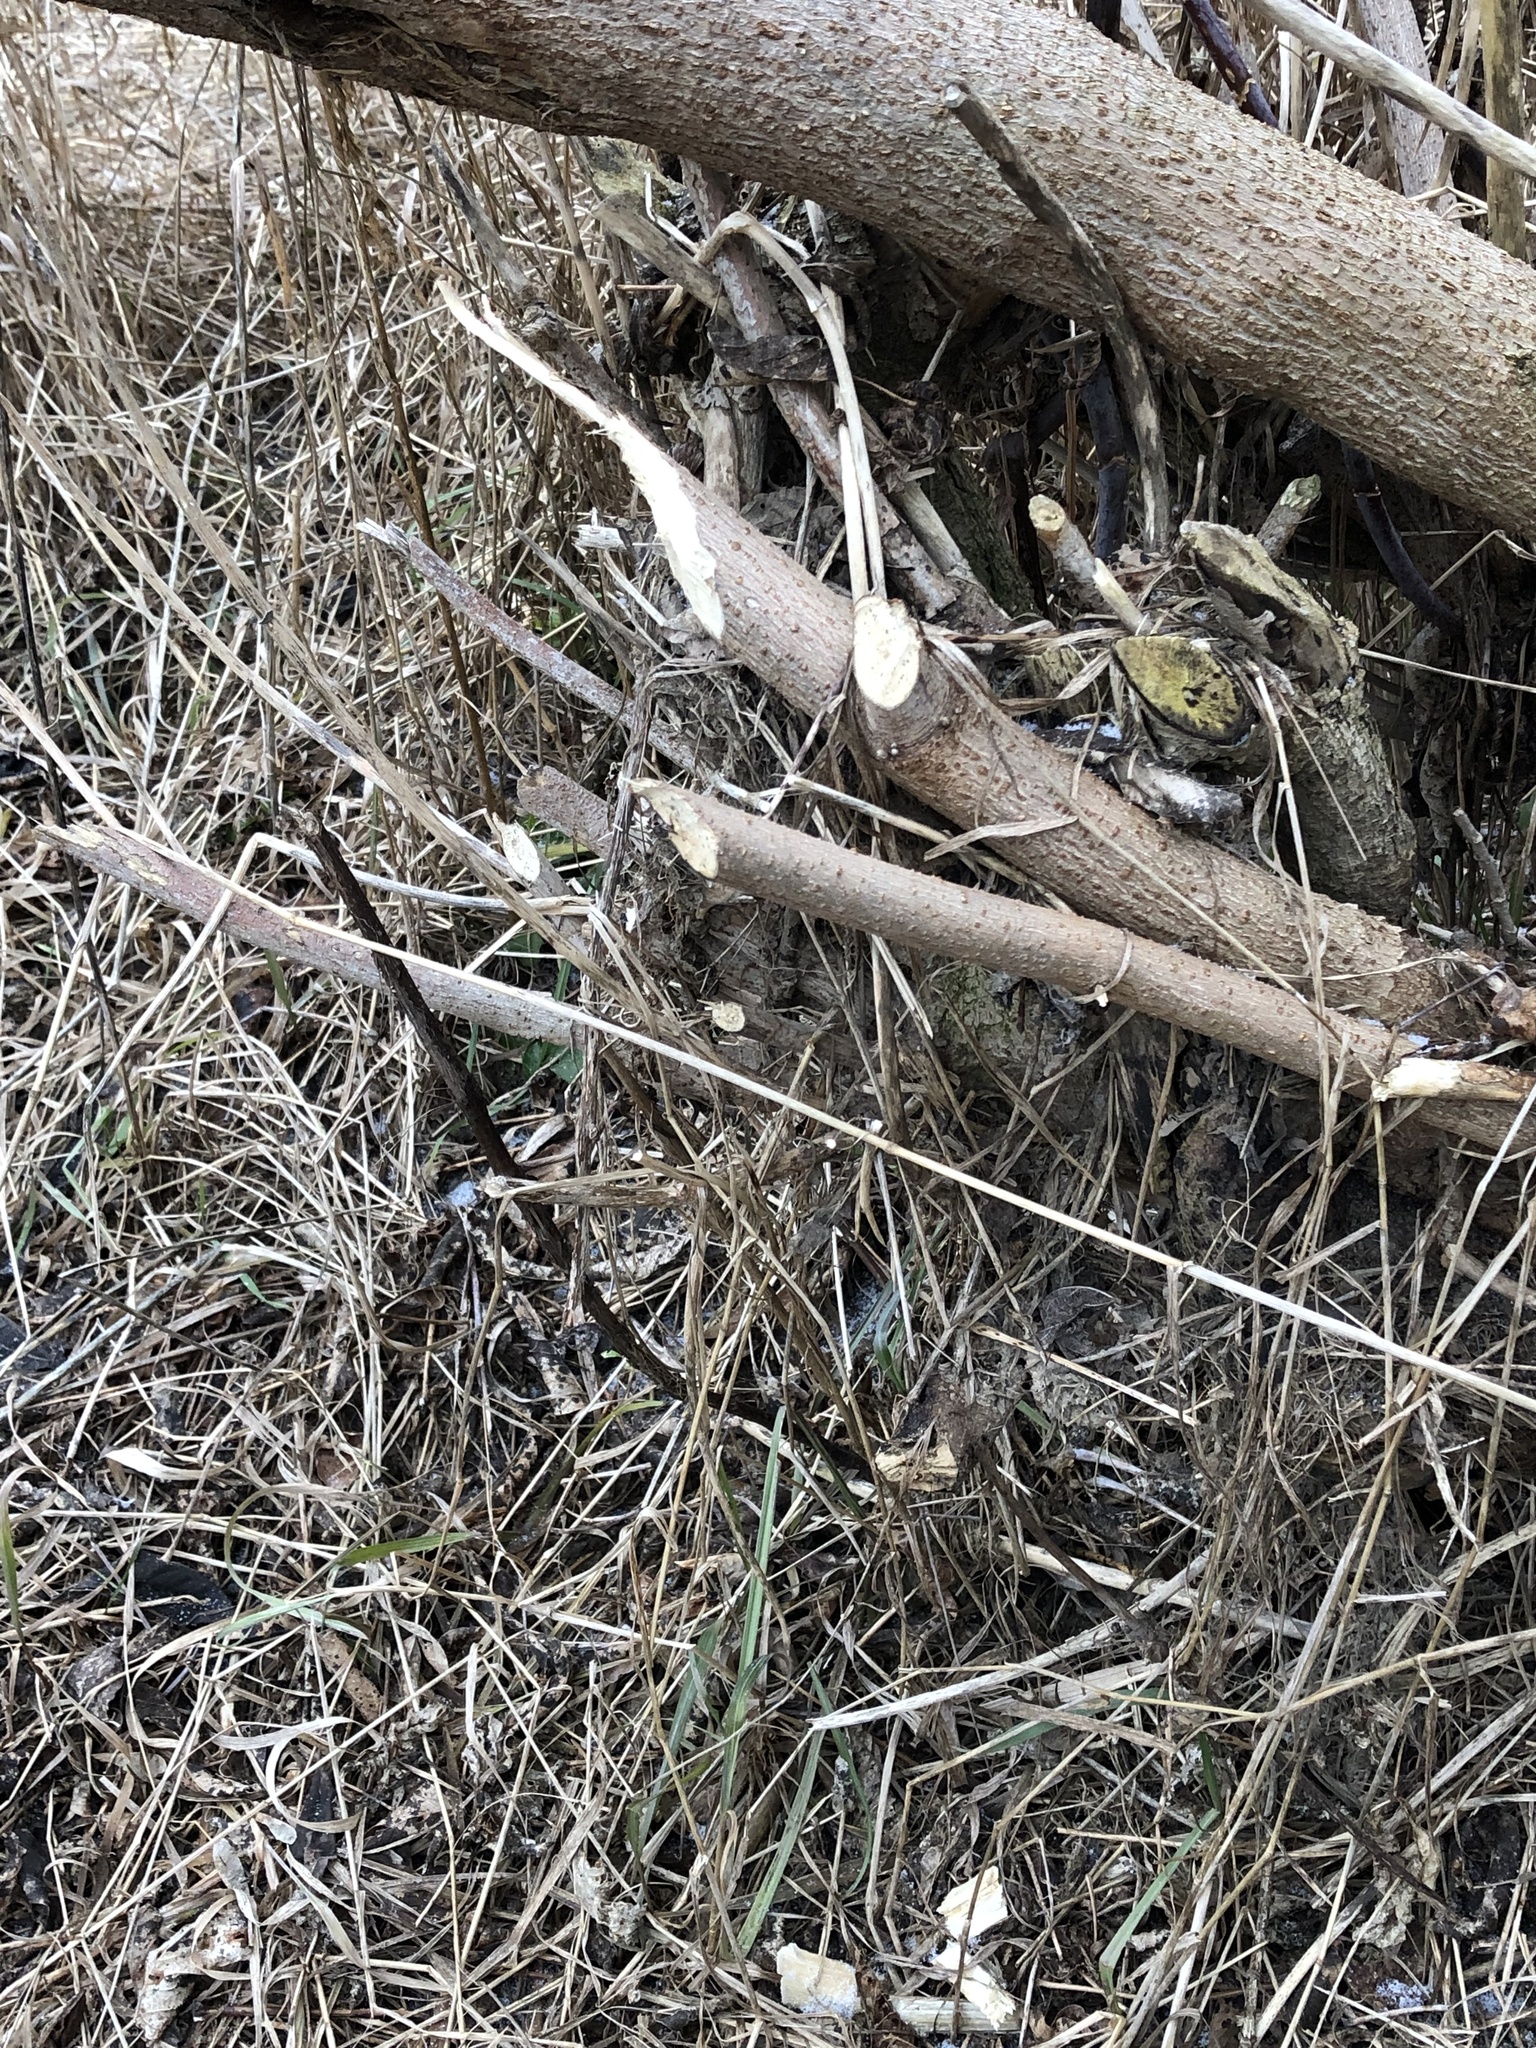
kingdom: Animalia
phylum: Chordata
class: Mammalia
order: Rodentia
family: Castoridae
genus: Castor
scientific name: Castor canadensis
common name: American beaver
